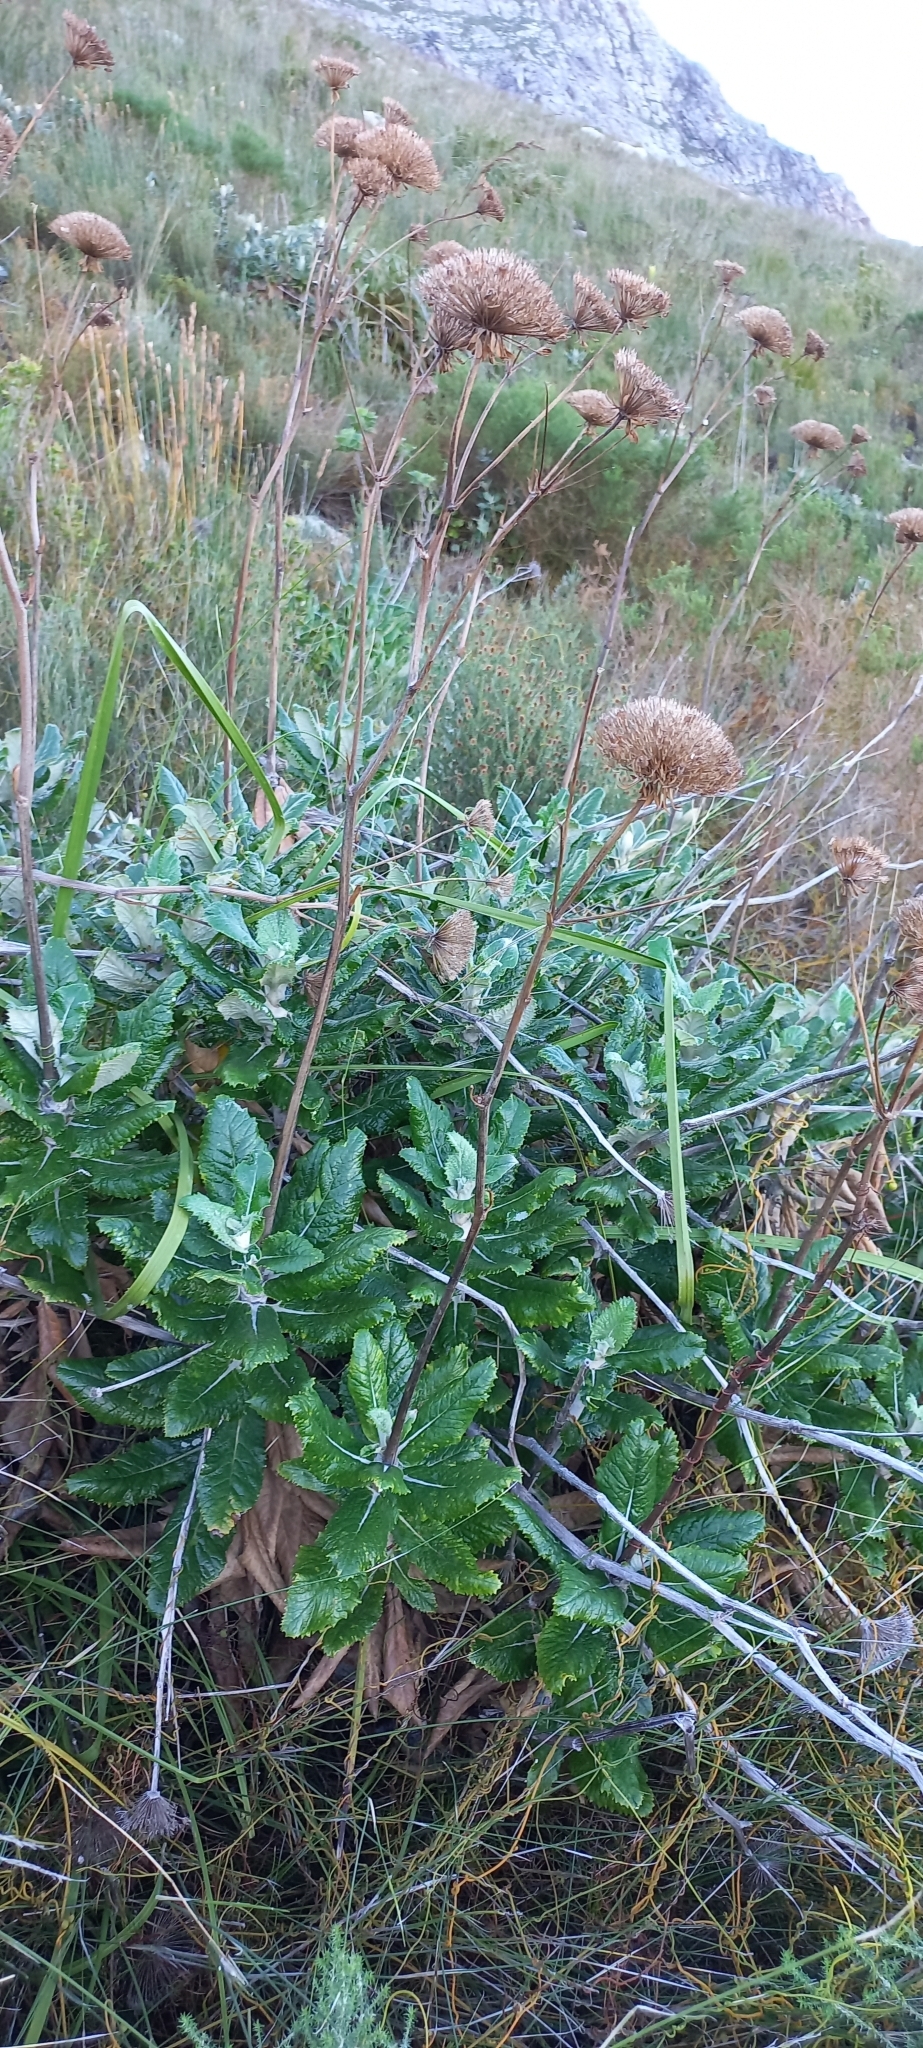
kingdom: Plantae
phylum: Tracheophyta
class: Magnoliopsida
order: Apiales
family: Apiaceae
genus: Hermas
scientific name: Hermas villosa
